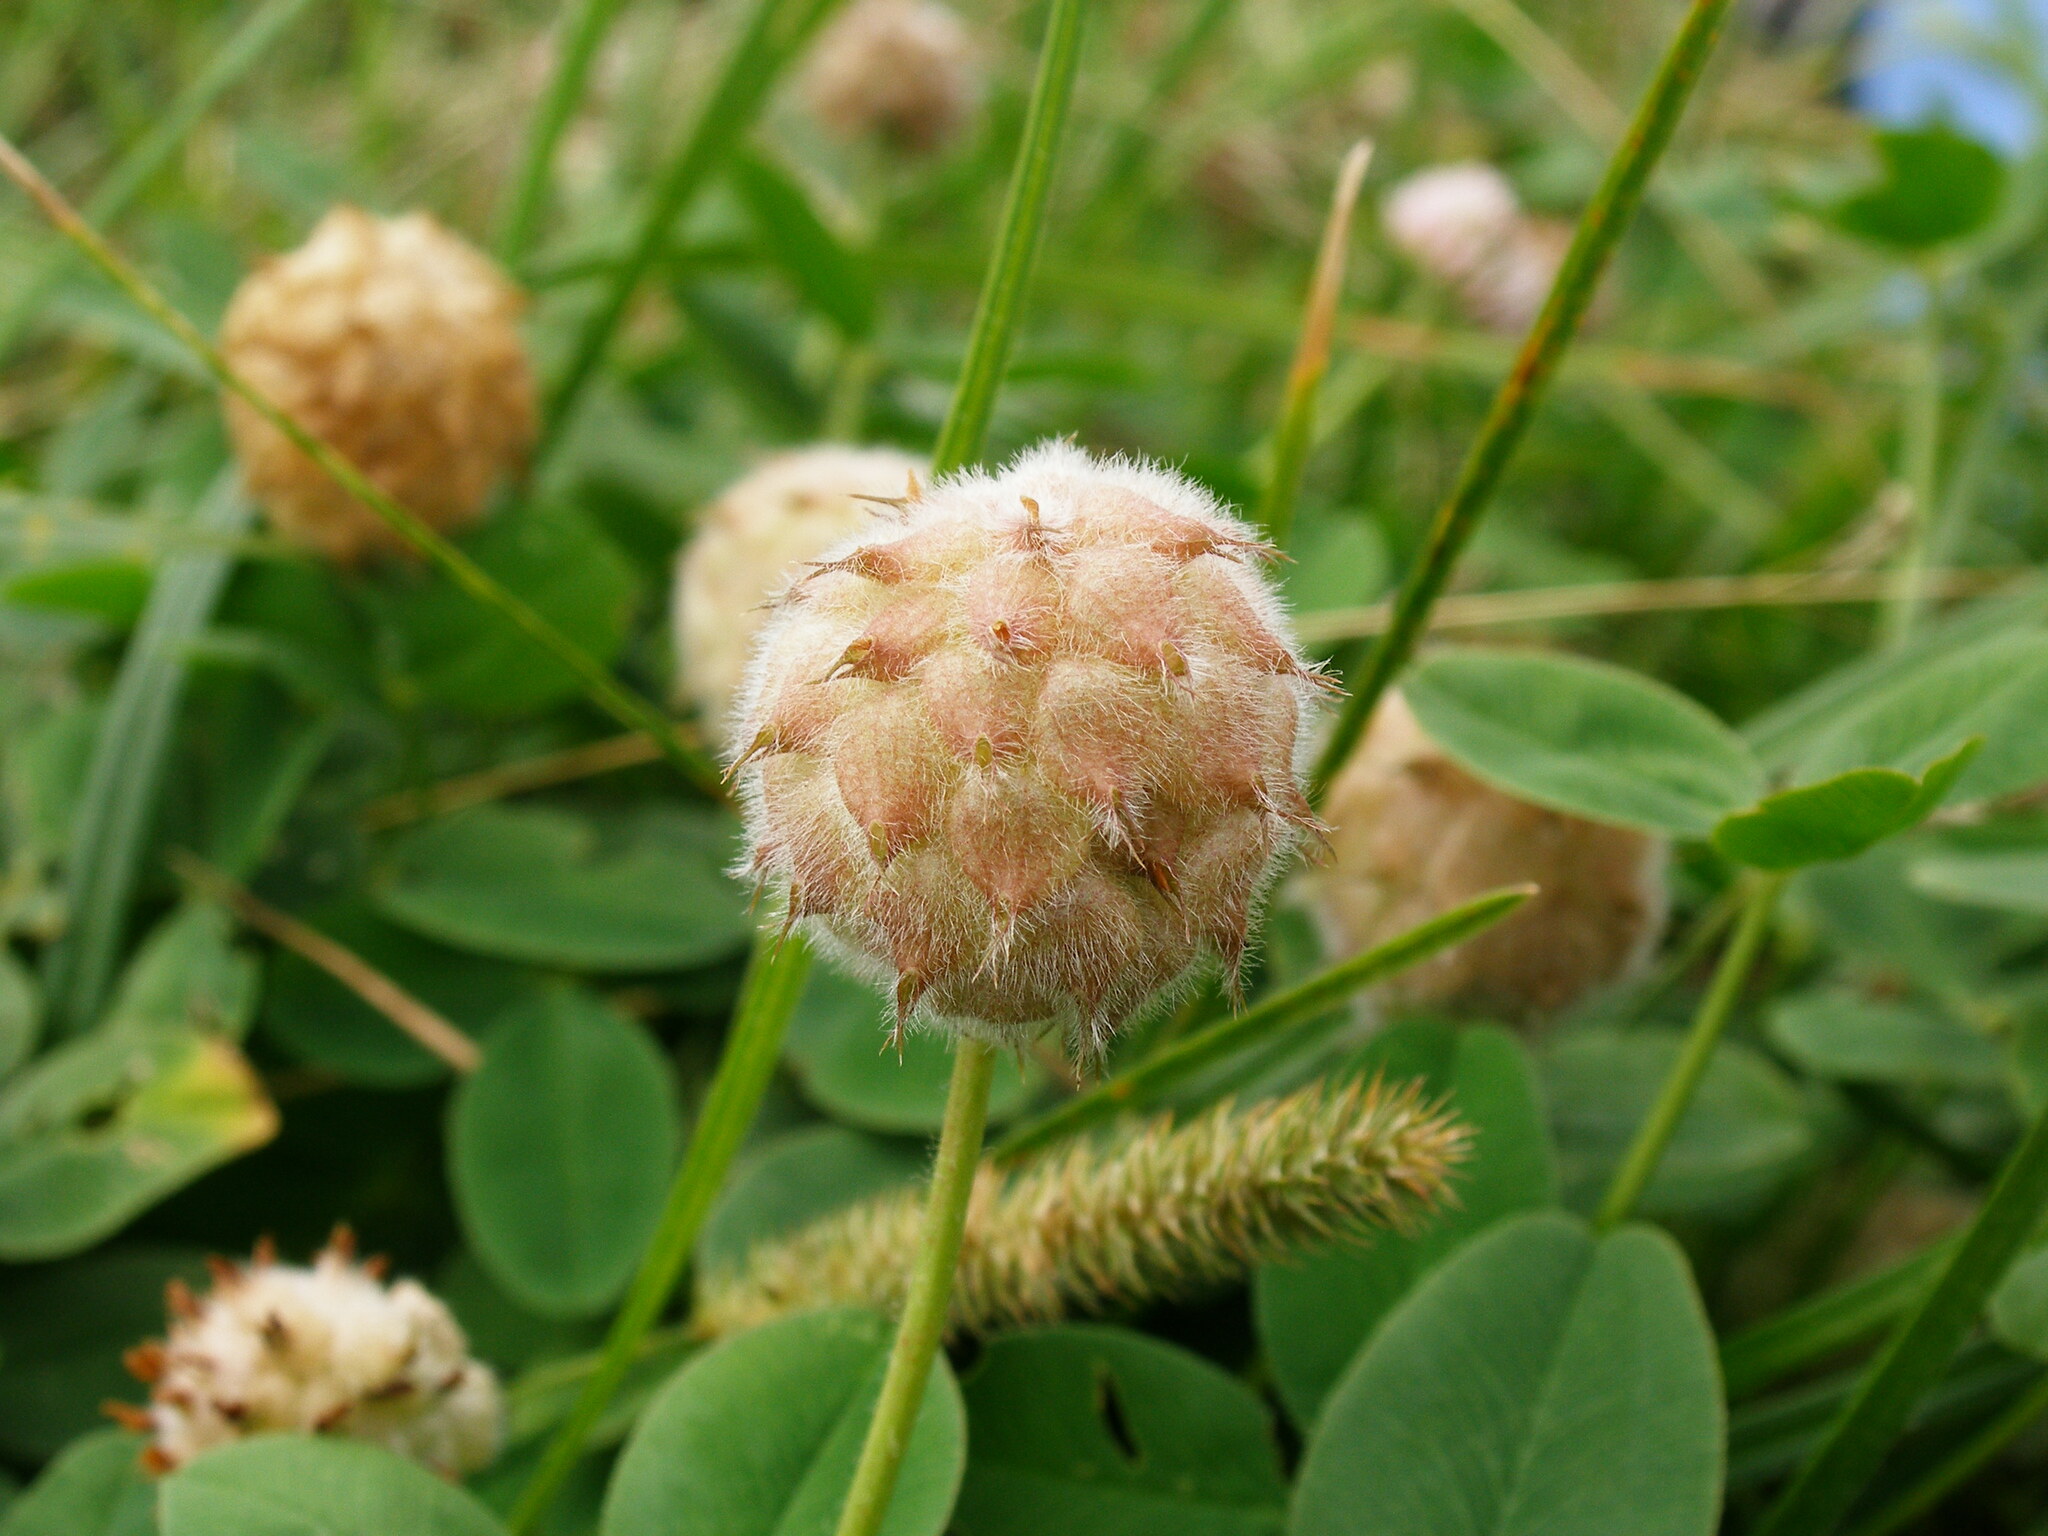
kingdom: Plantae
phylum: Tracheophyta
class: Magnoliopsida
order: Fabales
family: Fabaceae
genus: Trifolium
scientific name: Trifolium fragiferum
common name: Strawberry clover
